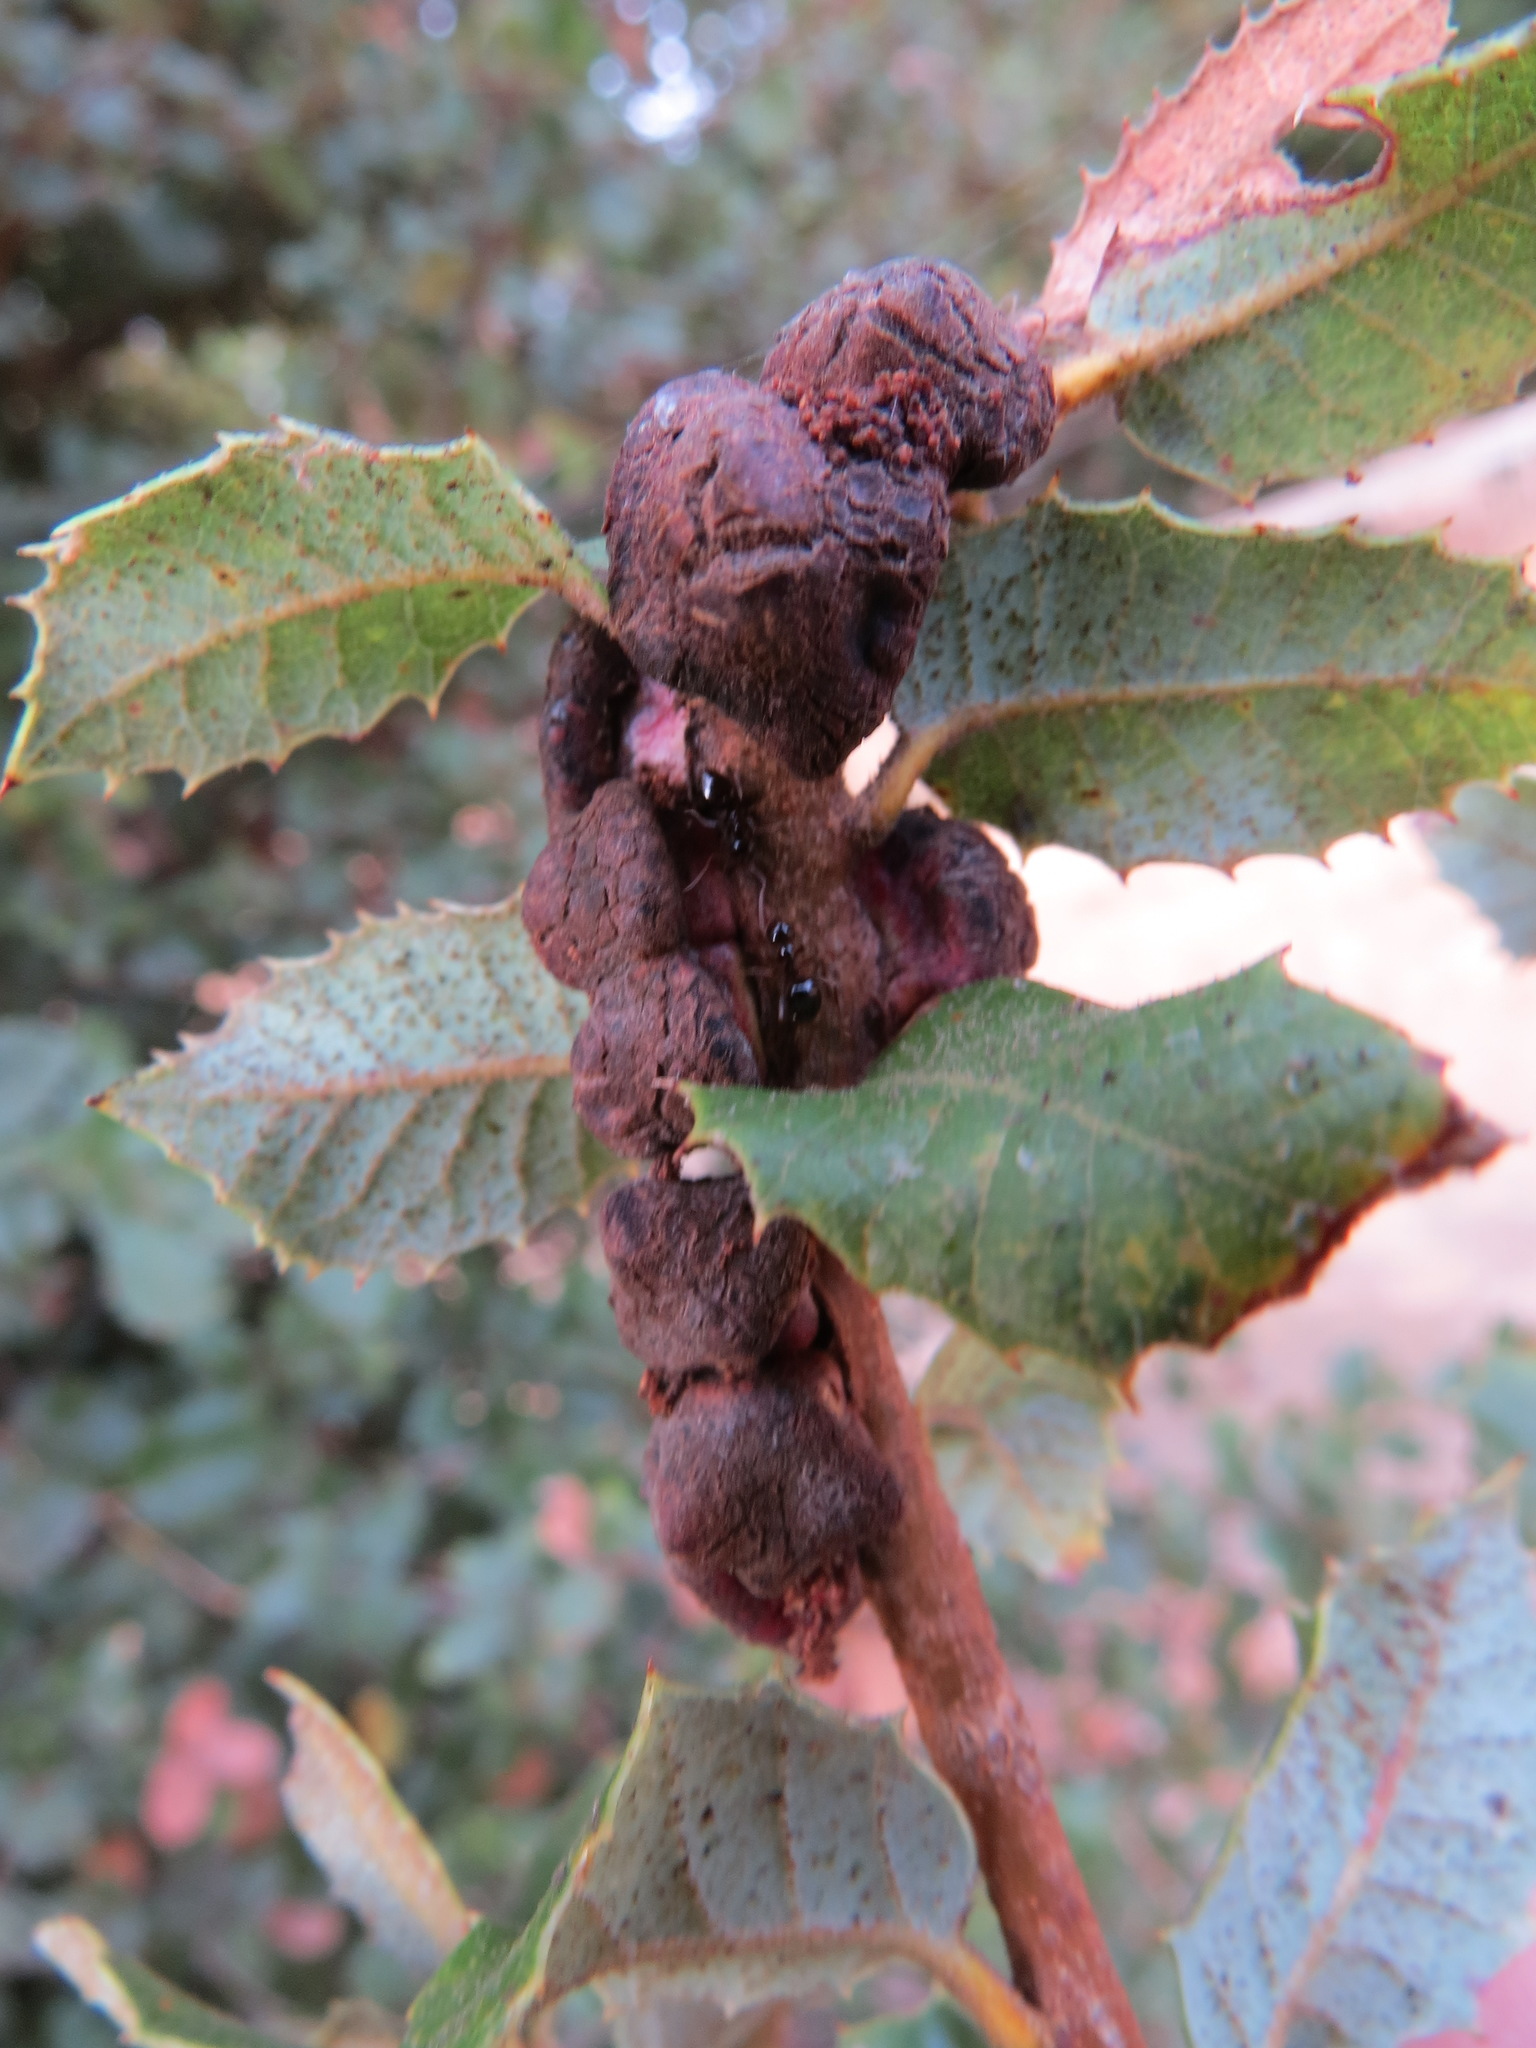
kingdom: Animalia
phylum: Arthropoda
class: Insecta
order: Hymenoptera
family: Cynipidae
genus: Disholandricus
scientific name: Disholandricus
